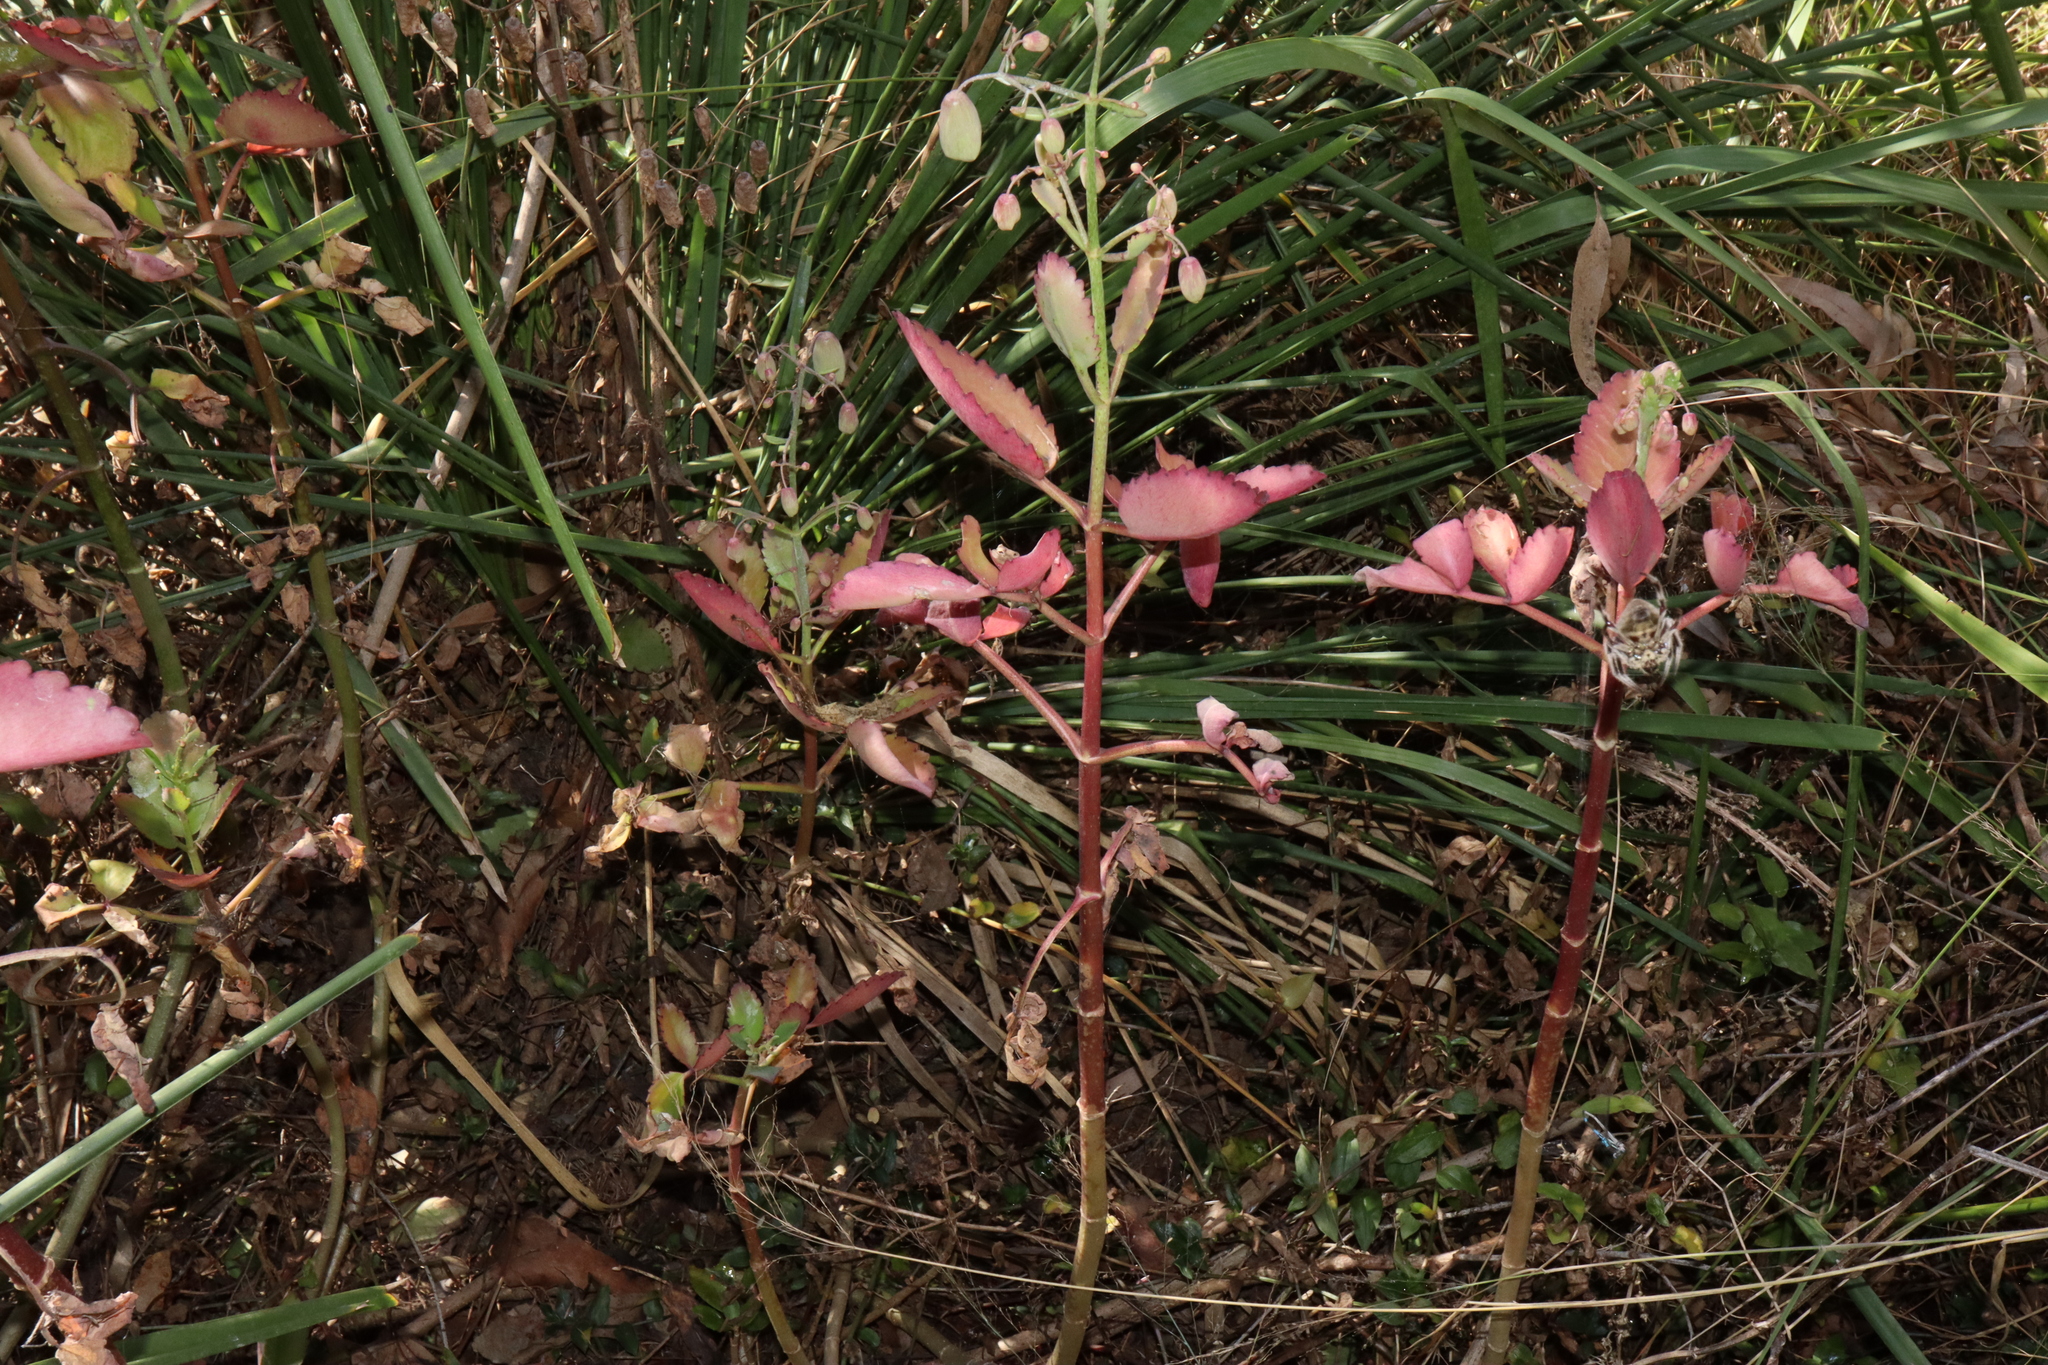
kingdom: Plantae
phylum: Tracheophyta
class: Magnoliopsida
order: Saxifragales
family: Crassulaceae
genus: Kalanchoe
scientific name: Kalanchoe pinnata
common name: Cathedral bells
